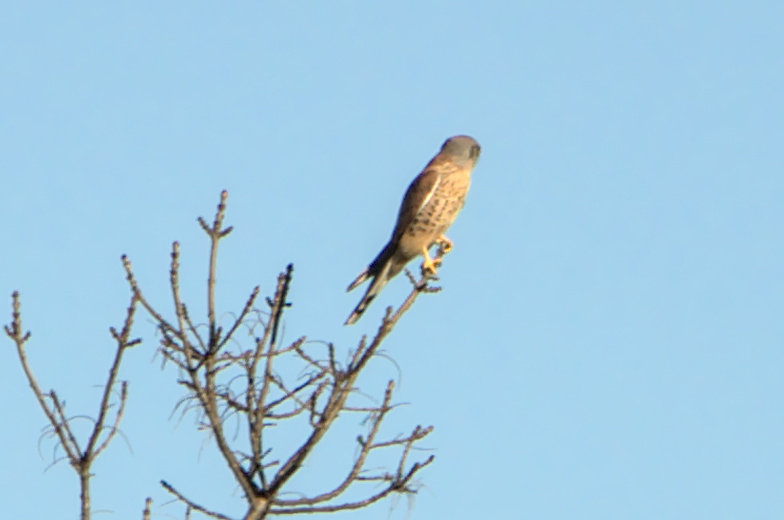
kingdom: Animalia
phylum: Chordata
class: Aves
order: Falconiformes
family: Falconidae
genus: Falco
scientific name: Falco tinnunculus
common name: Common kestrel
